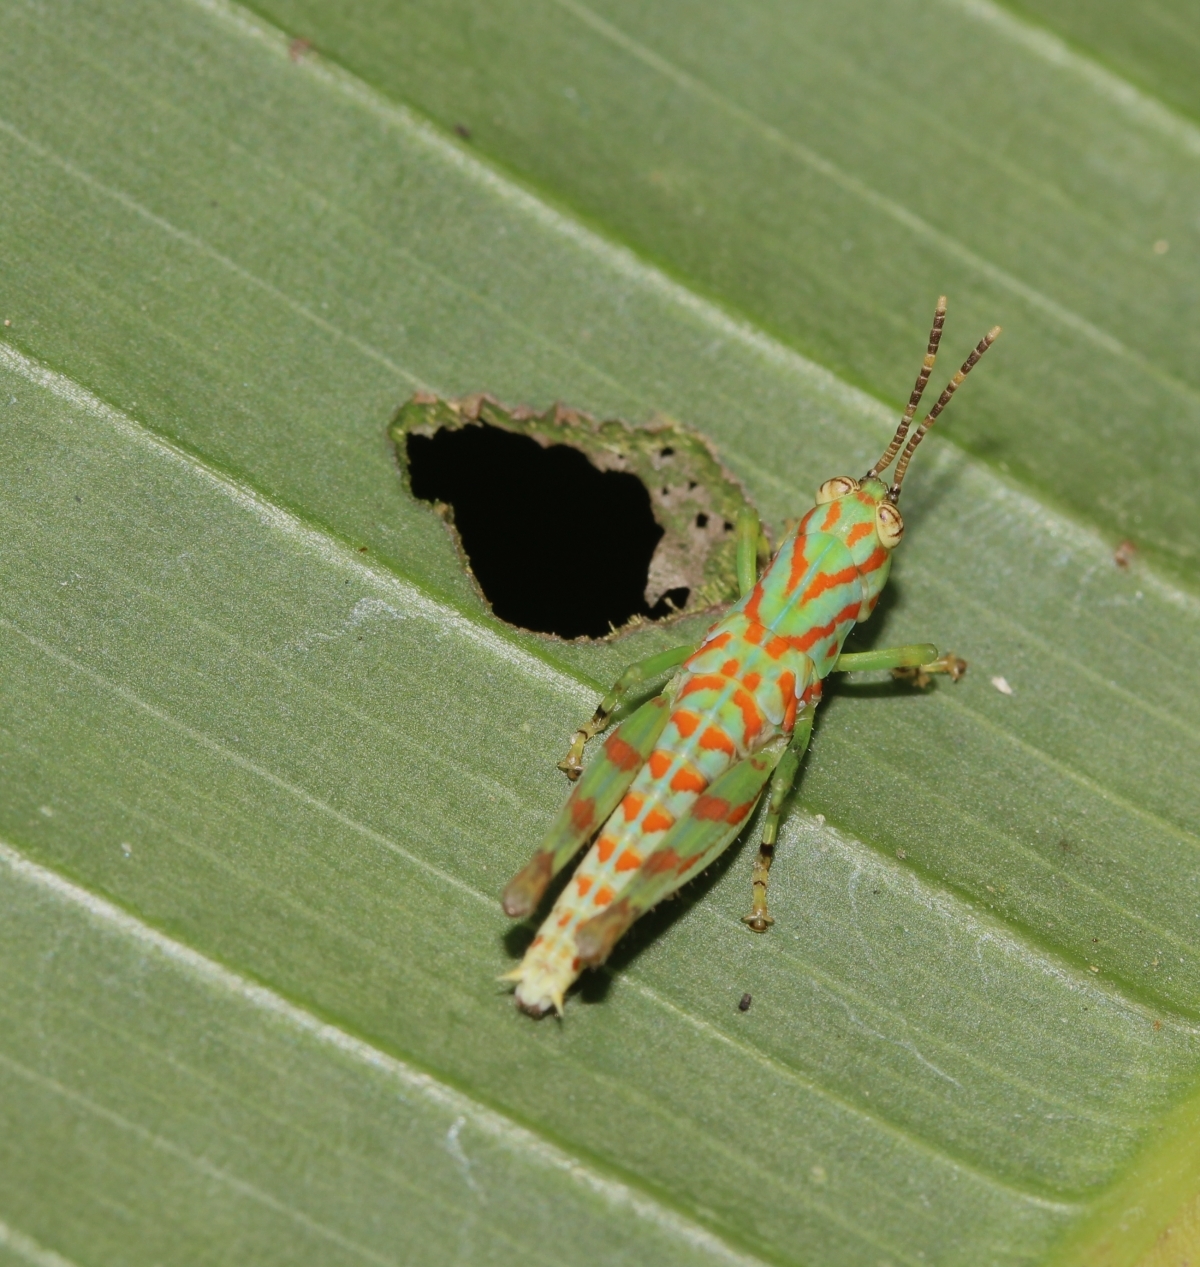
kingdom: Animalia
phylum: Arthropoda
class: Insecta
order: Orthoptera
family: Acrididae
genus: Cornops
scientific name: Cornops
